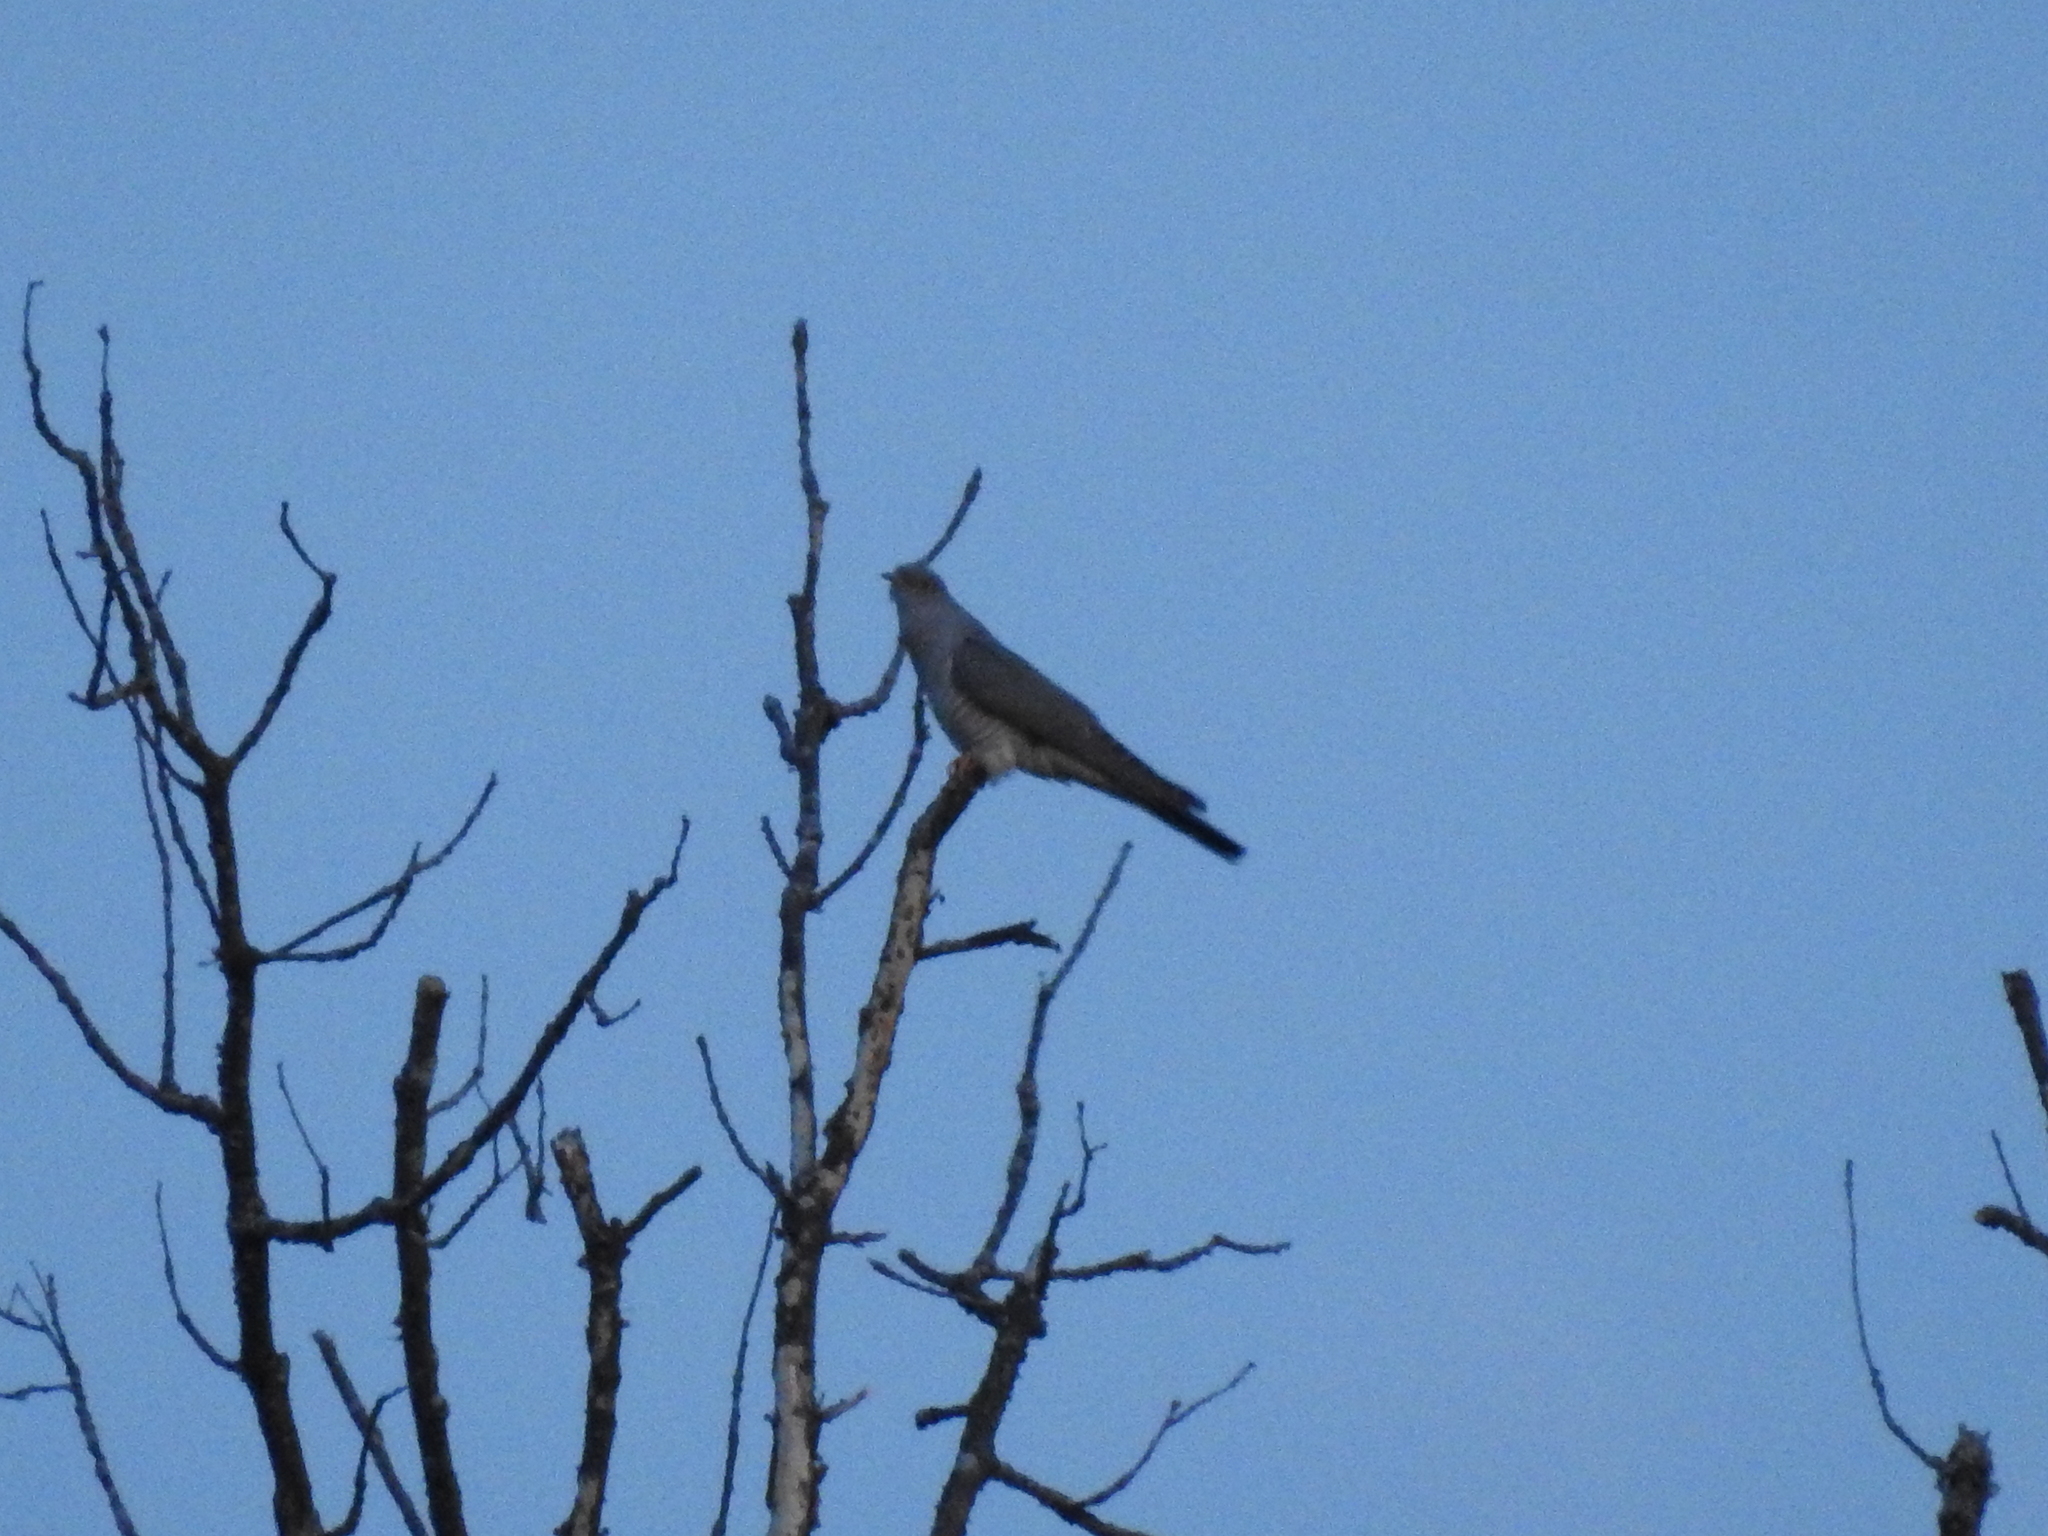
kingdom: Animalia
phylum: Chordata
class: Aves
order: Cuculiformes
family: Cuculidae
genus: Cuculus
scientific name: Cuculus canorus
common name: Common cuckoo
